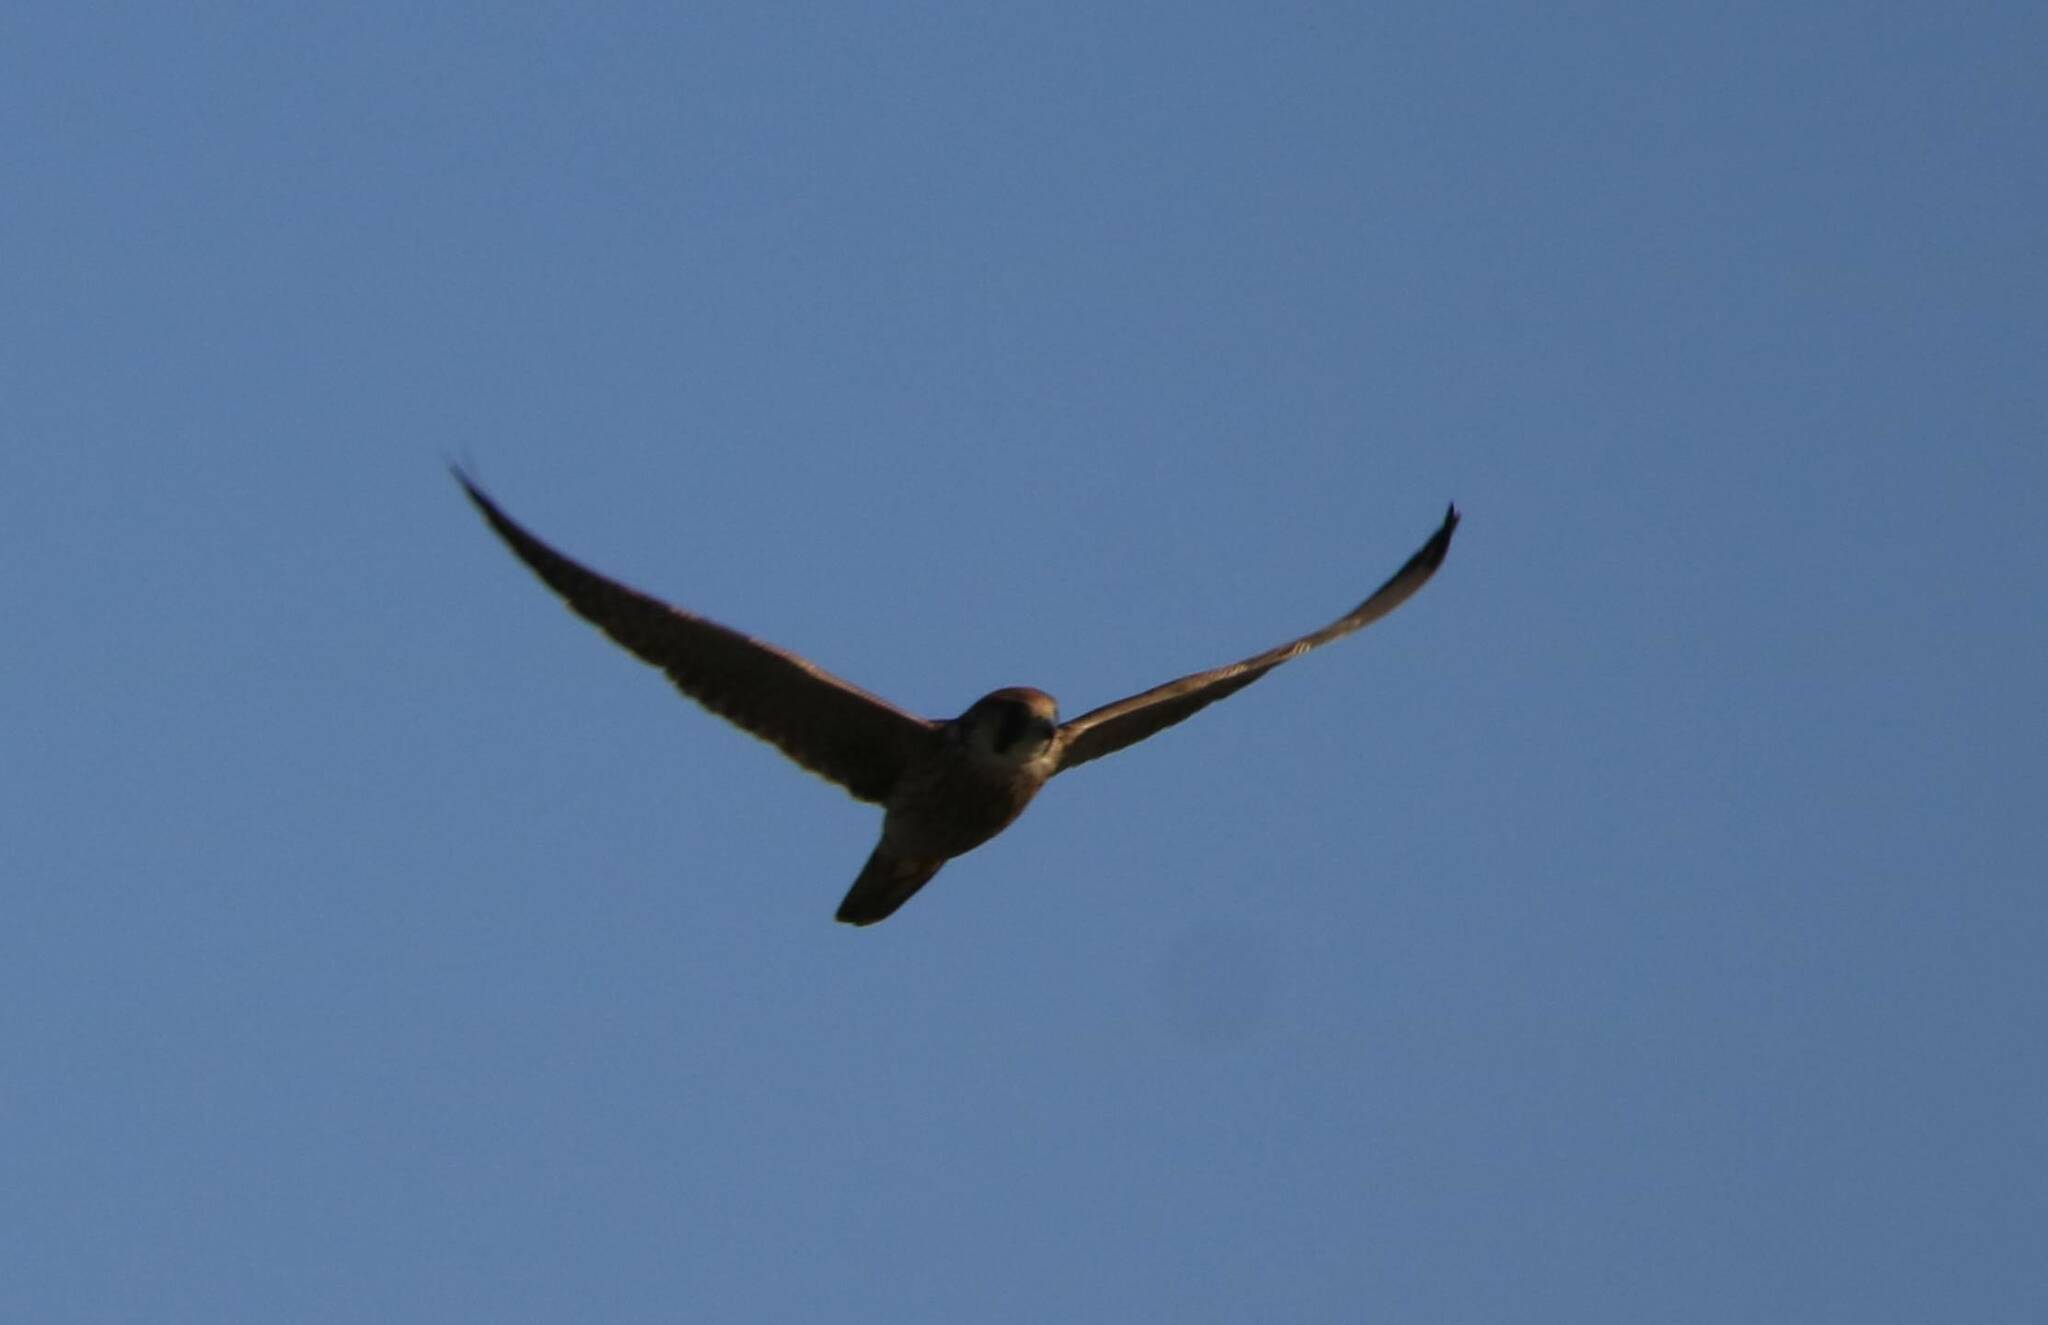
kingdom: Animalia
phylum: Chordata
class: Aves
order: Falconiformes
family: Falconidae
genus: Falco
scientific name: Falco biarmicus
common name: Lanner falcon
